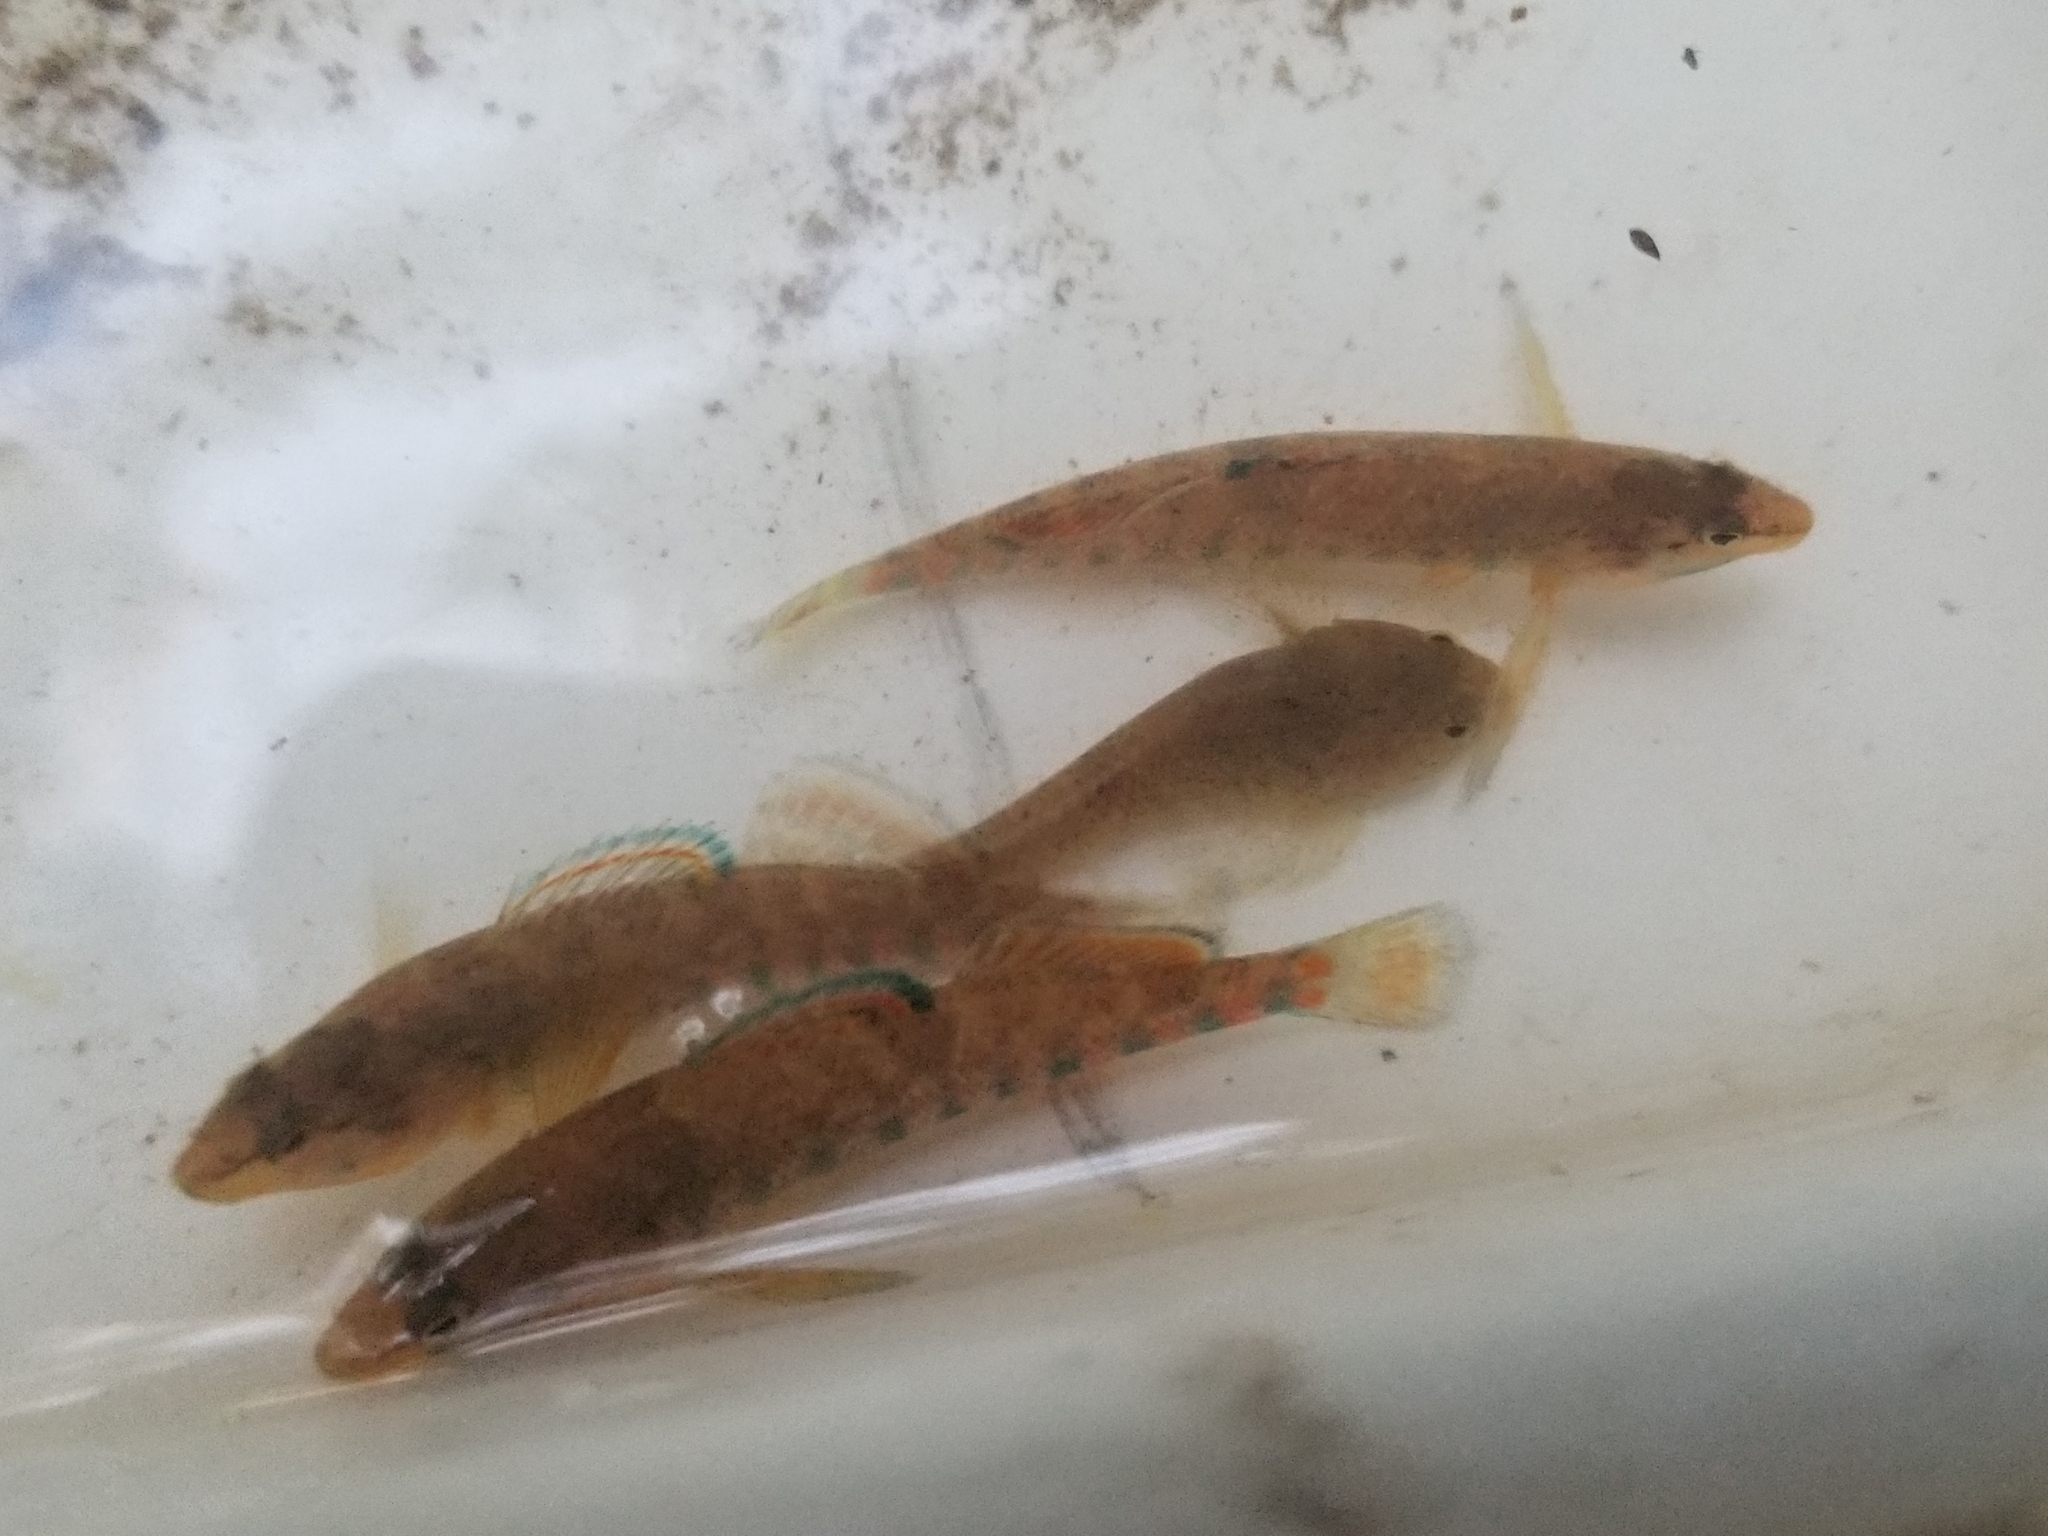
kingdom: Animalia
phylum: Chordata
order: Perciformes
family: Percidae
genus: Etheostoma
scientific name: Etheostoma caeruleum
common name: Rainbow darter
